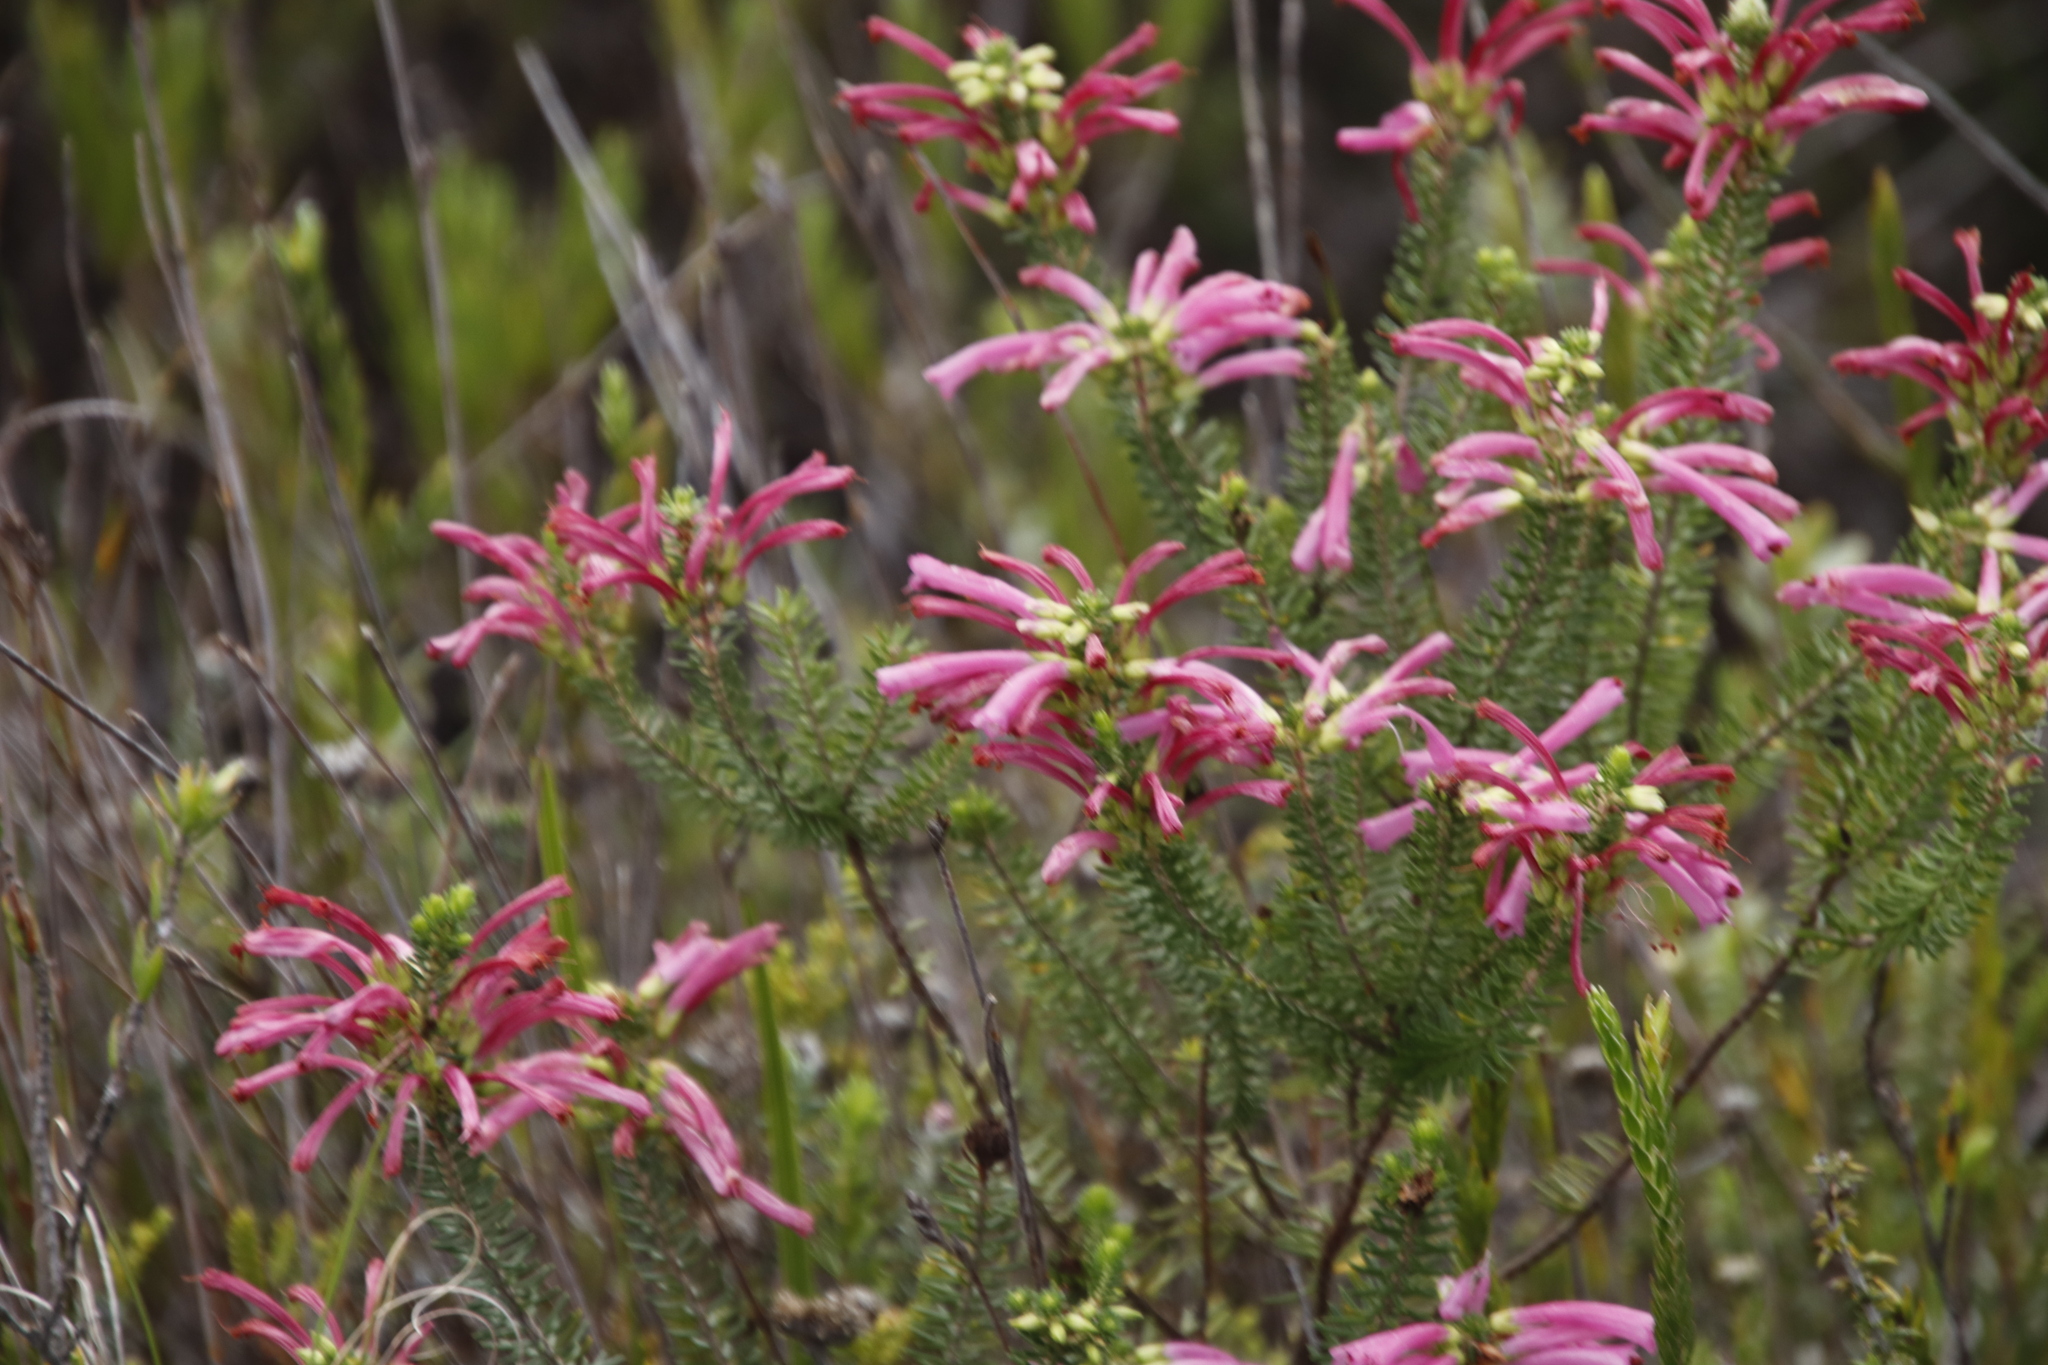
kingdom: Plantae
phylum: Tracheophyta
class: Magnoliopsida
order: Ericales
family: Ericaceae
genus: Erica
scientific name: Erica abietina
